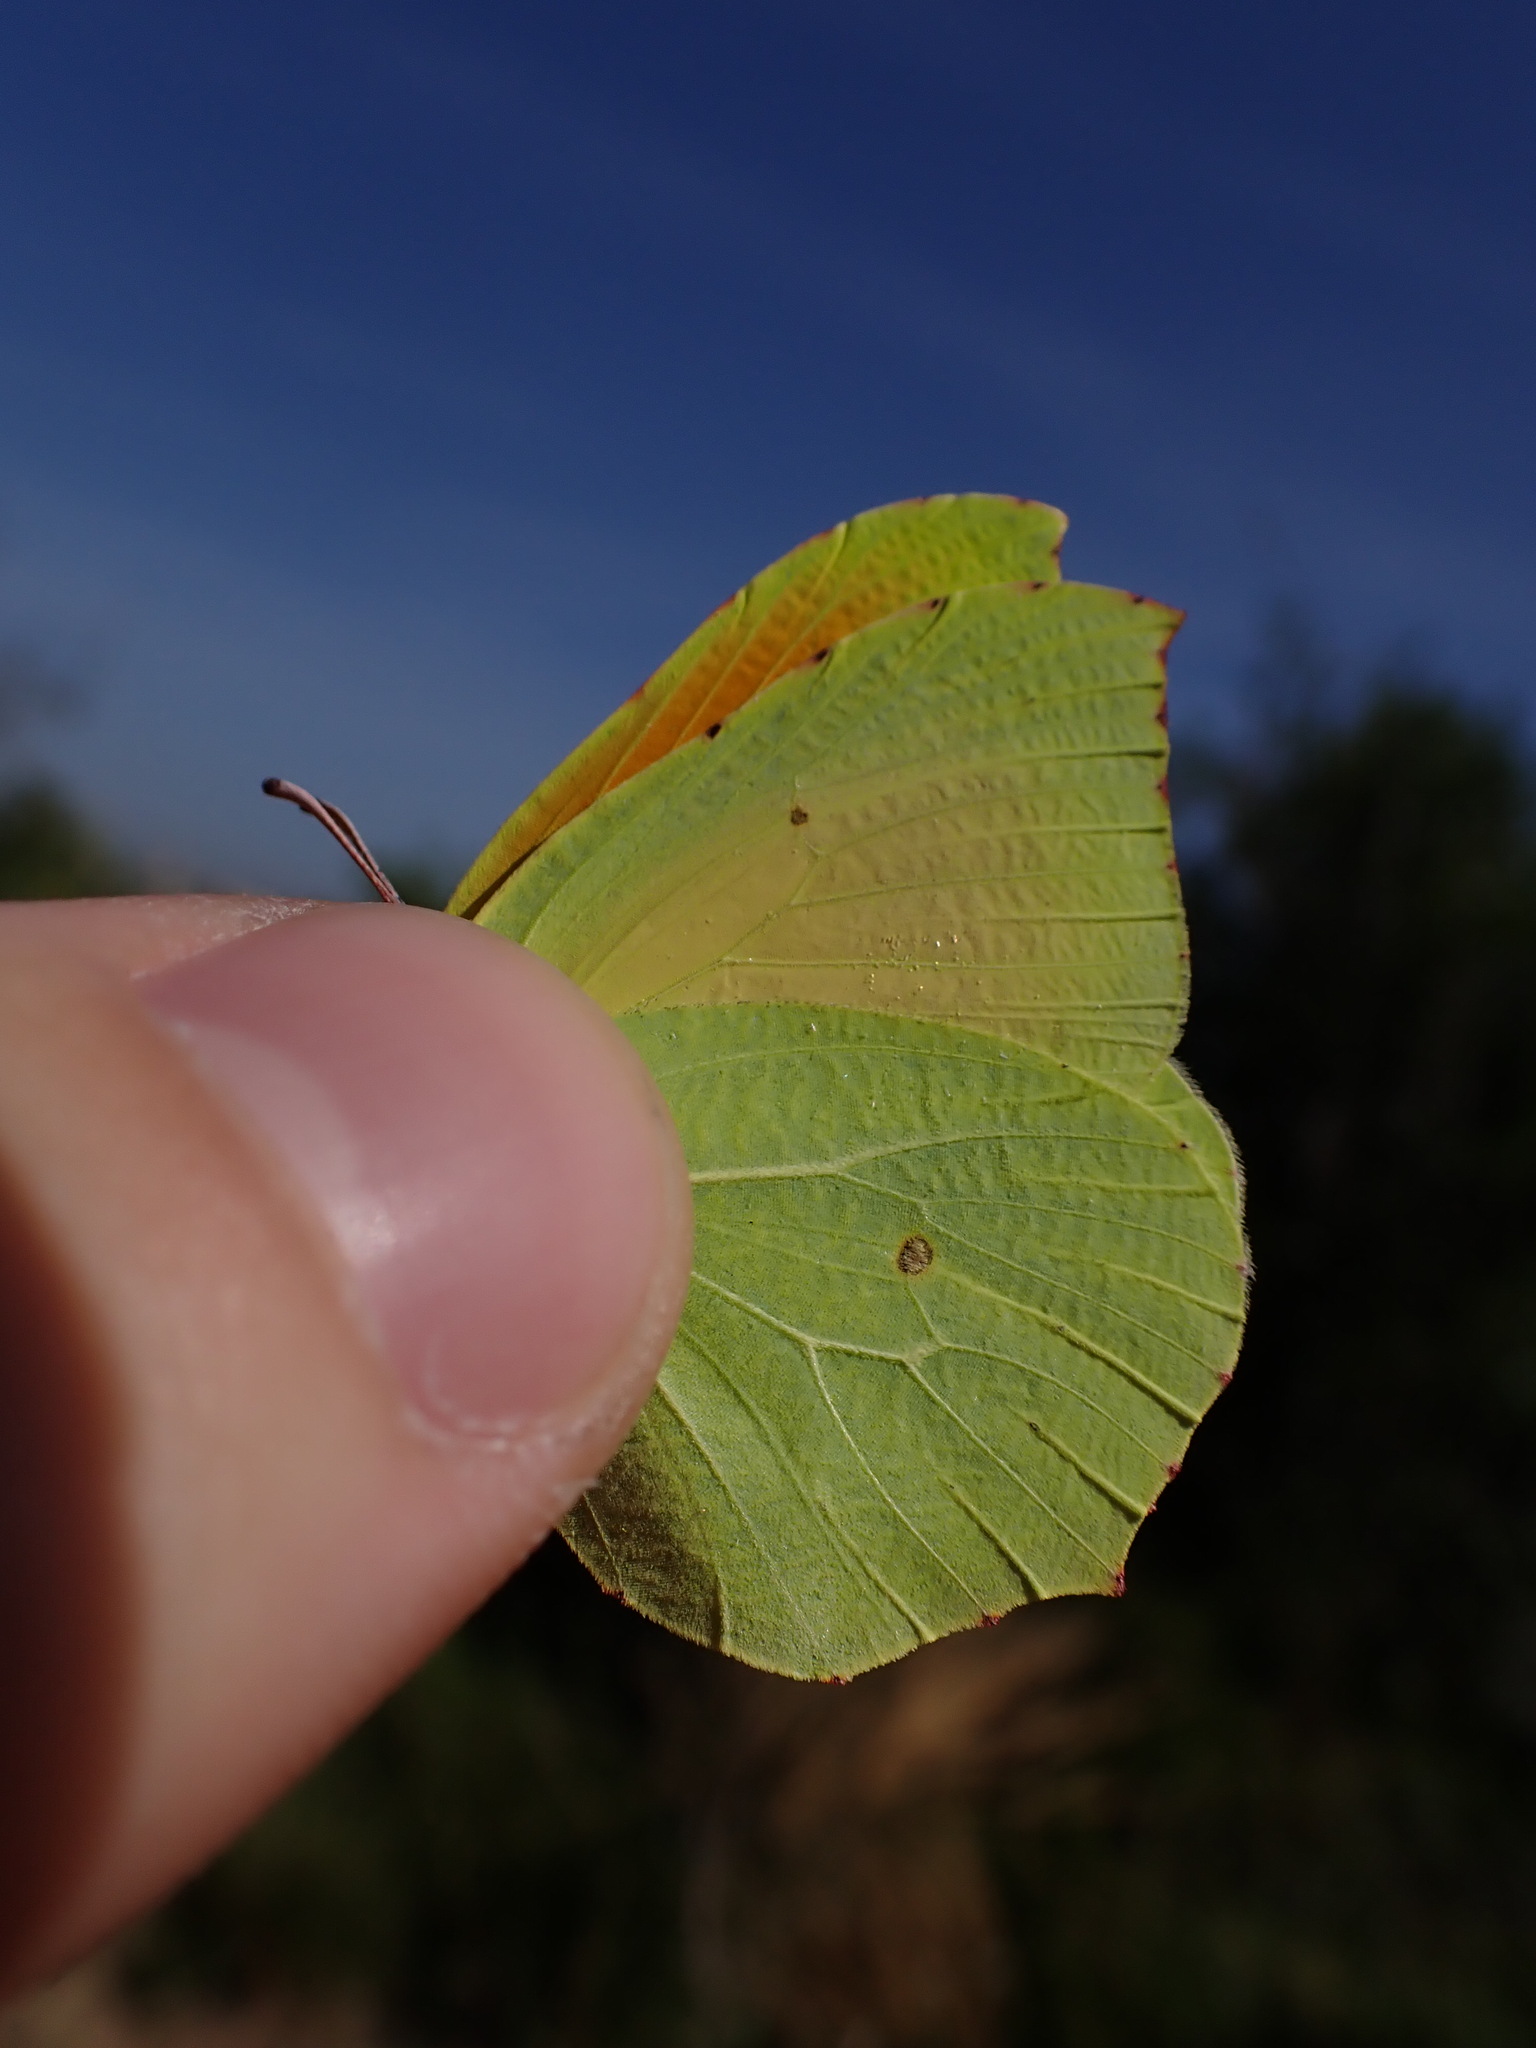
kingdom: Animalia
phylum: Arthropoda
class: Insecta
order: Lepidoptera
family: Pieridae
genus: Gonepteryx
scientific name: Gonepteryx cleopatra
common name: Cleopatra
